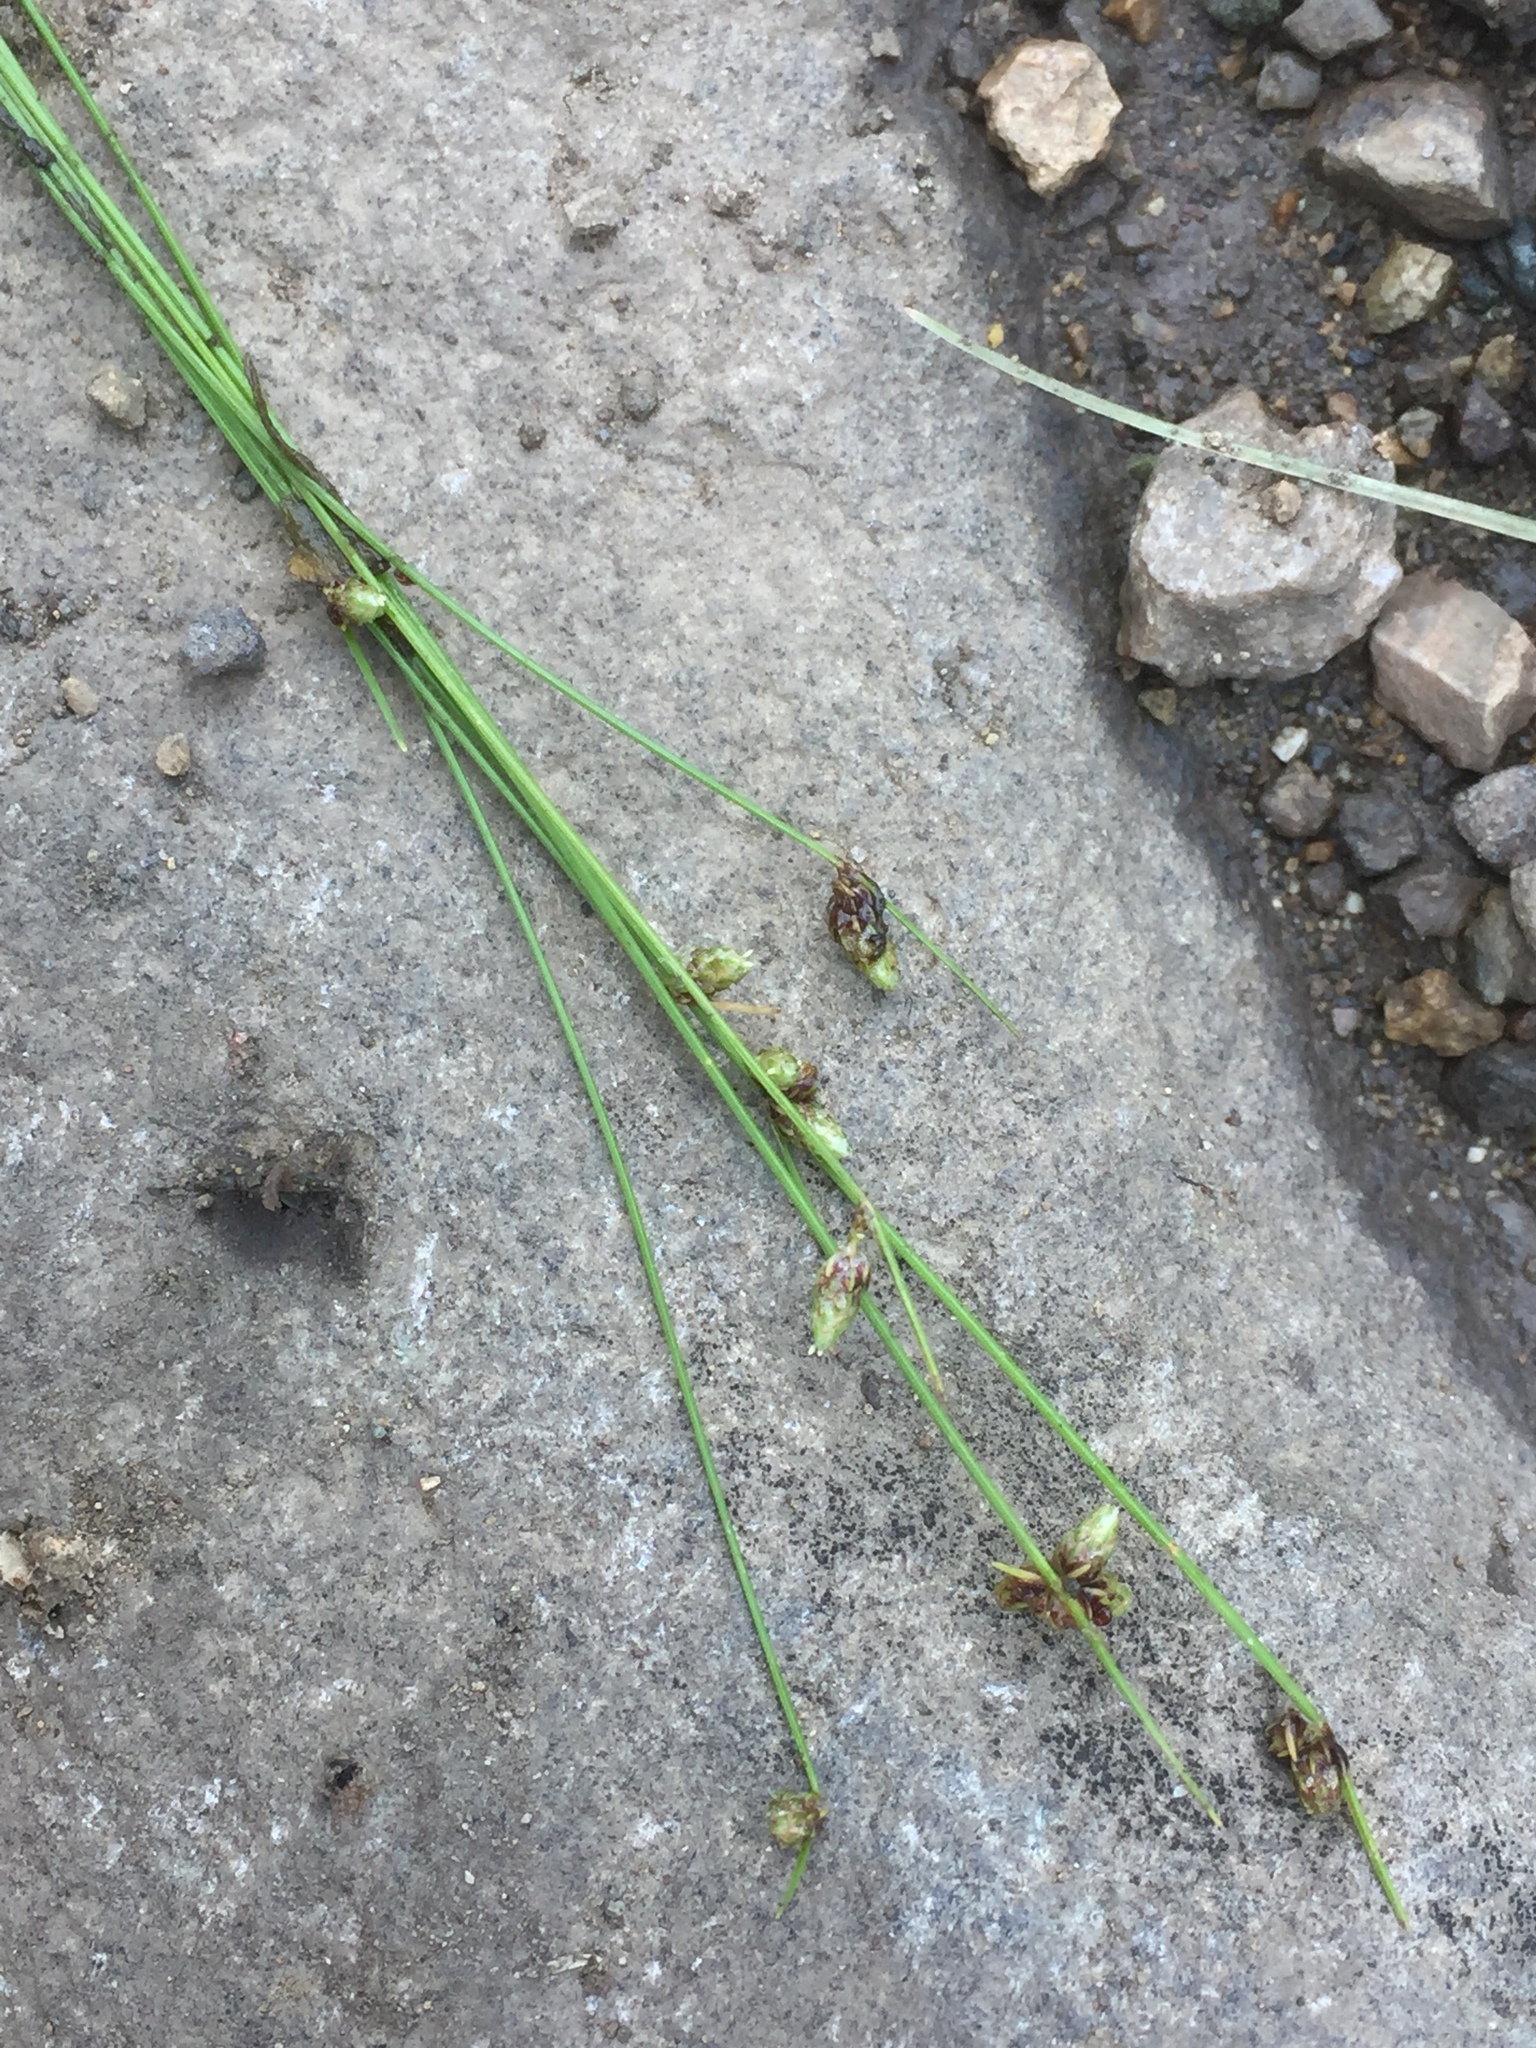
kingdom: Plantae
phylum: Tracheophyta
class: Liliopsida
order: Poales
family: Cyperaceae
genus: Isolepis
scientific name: Isolepis setacea
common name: Bristle club-rush
